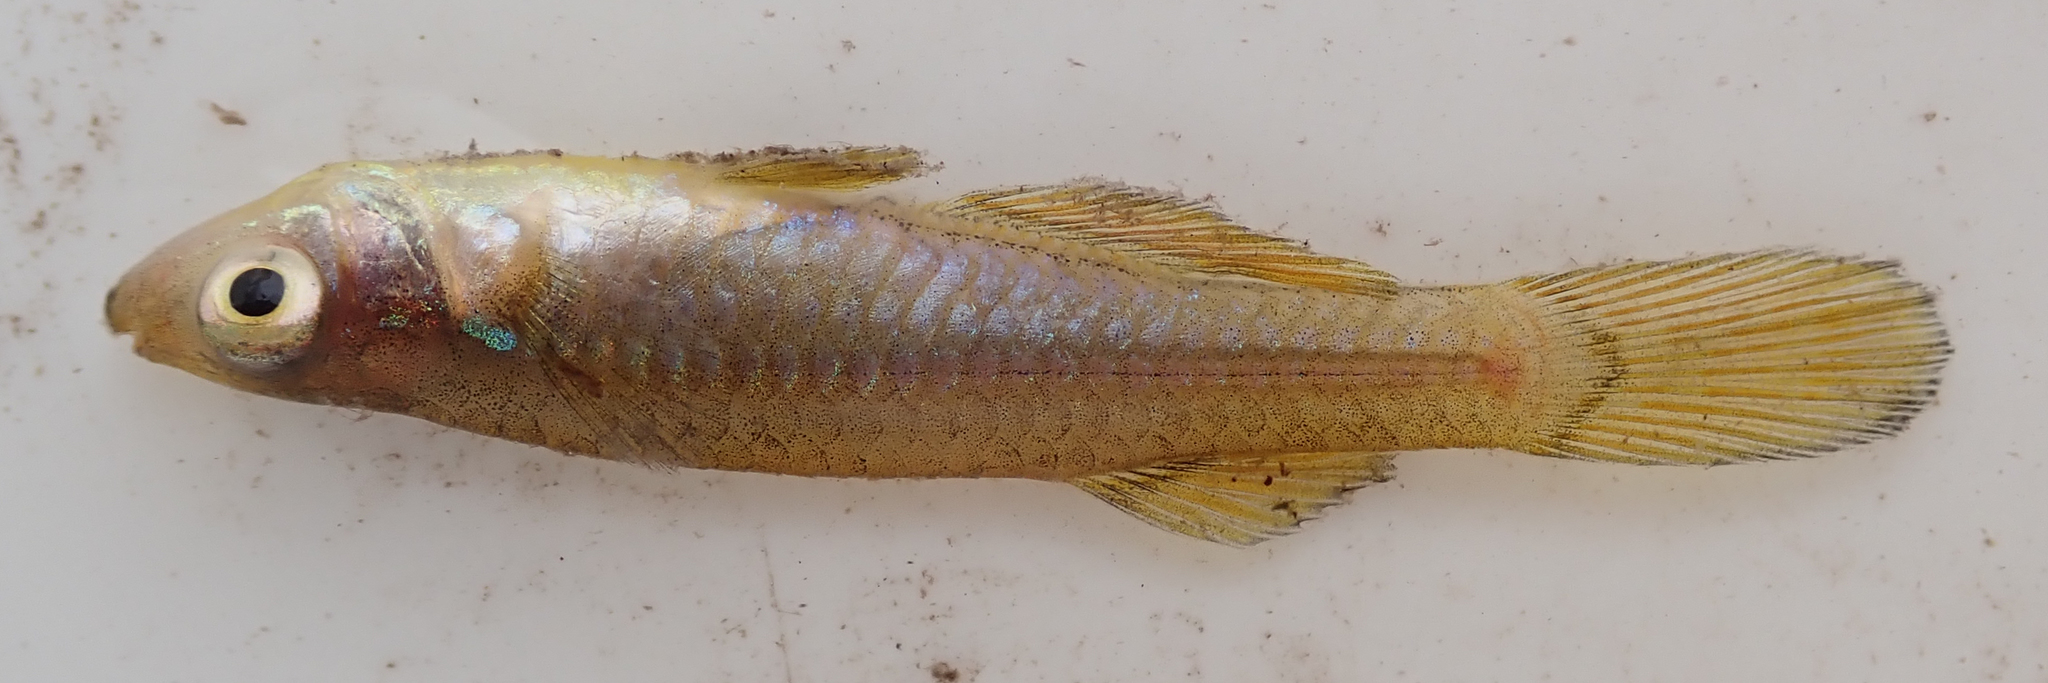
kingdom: Animalia
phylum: Chordata
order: Cyprinodontiformes
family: Poeciliidae
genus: Micropanchax
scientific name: Micropanchax johnstoni
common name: Johnston's topminnow
